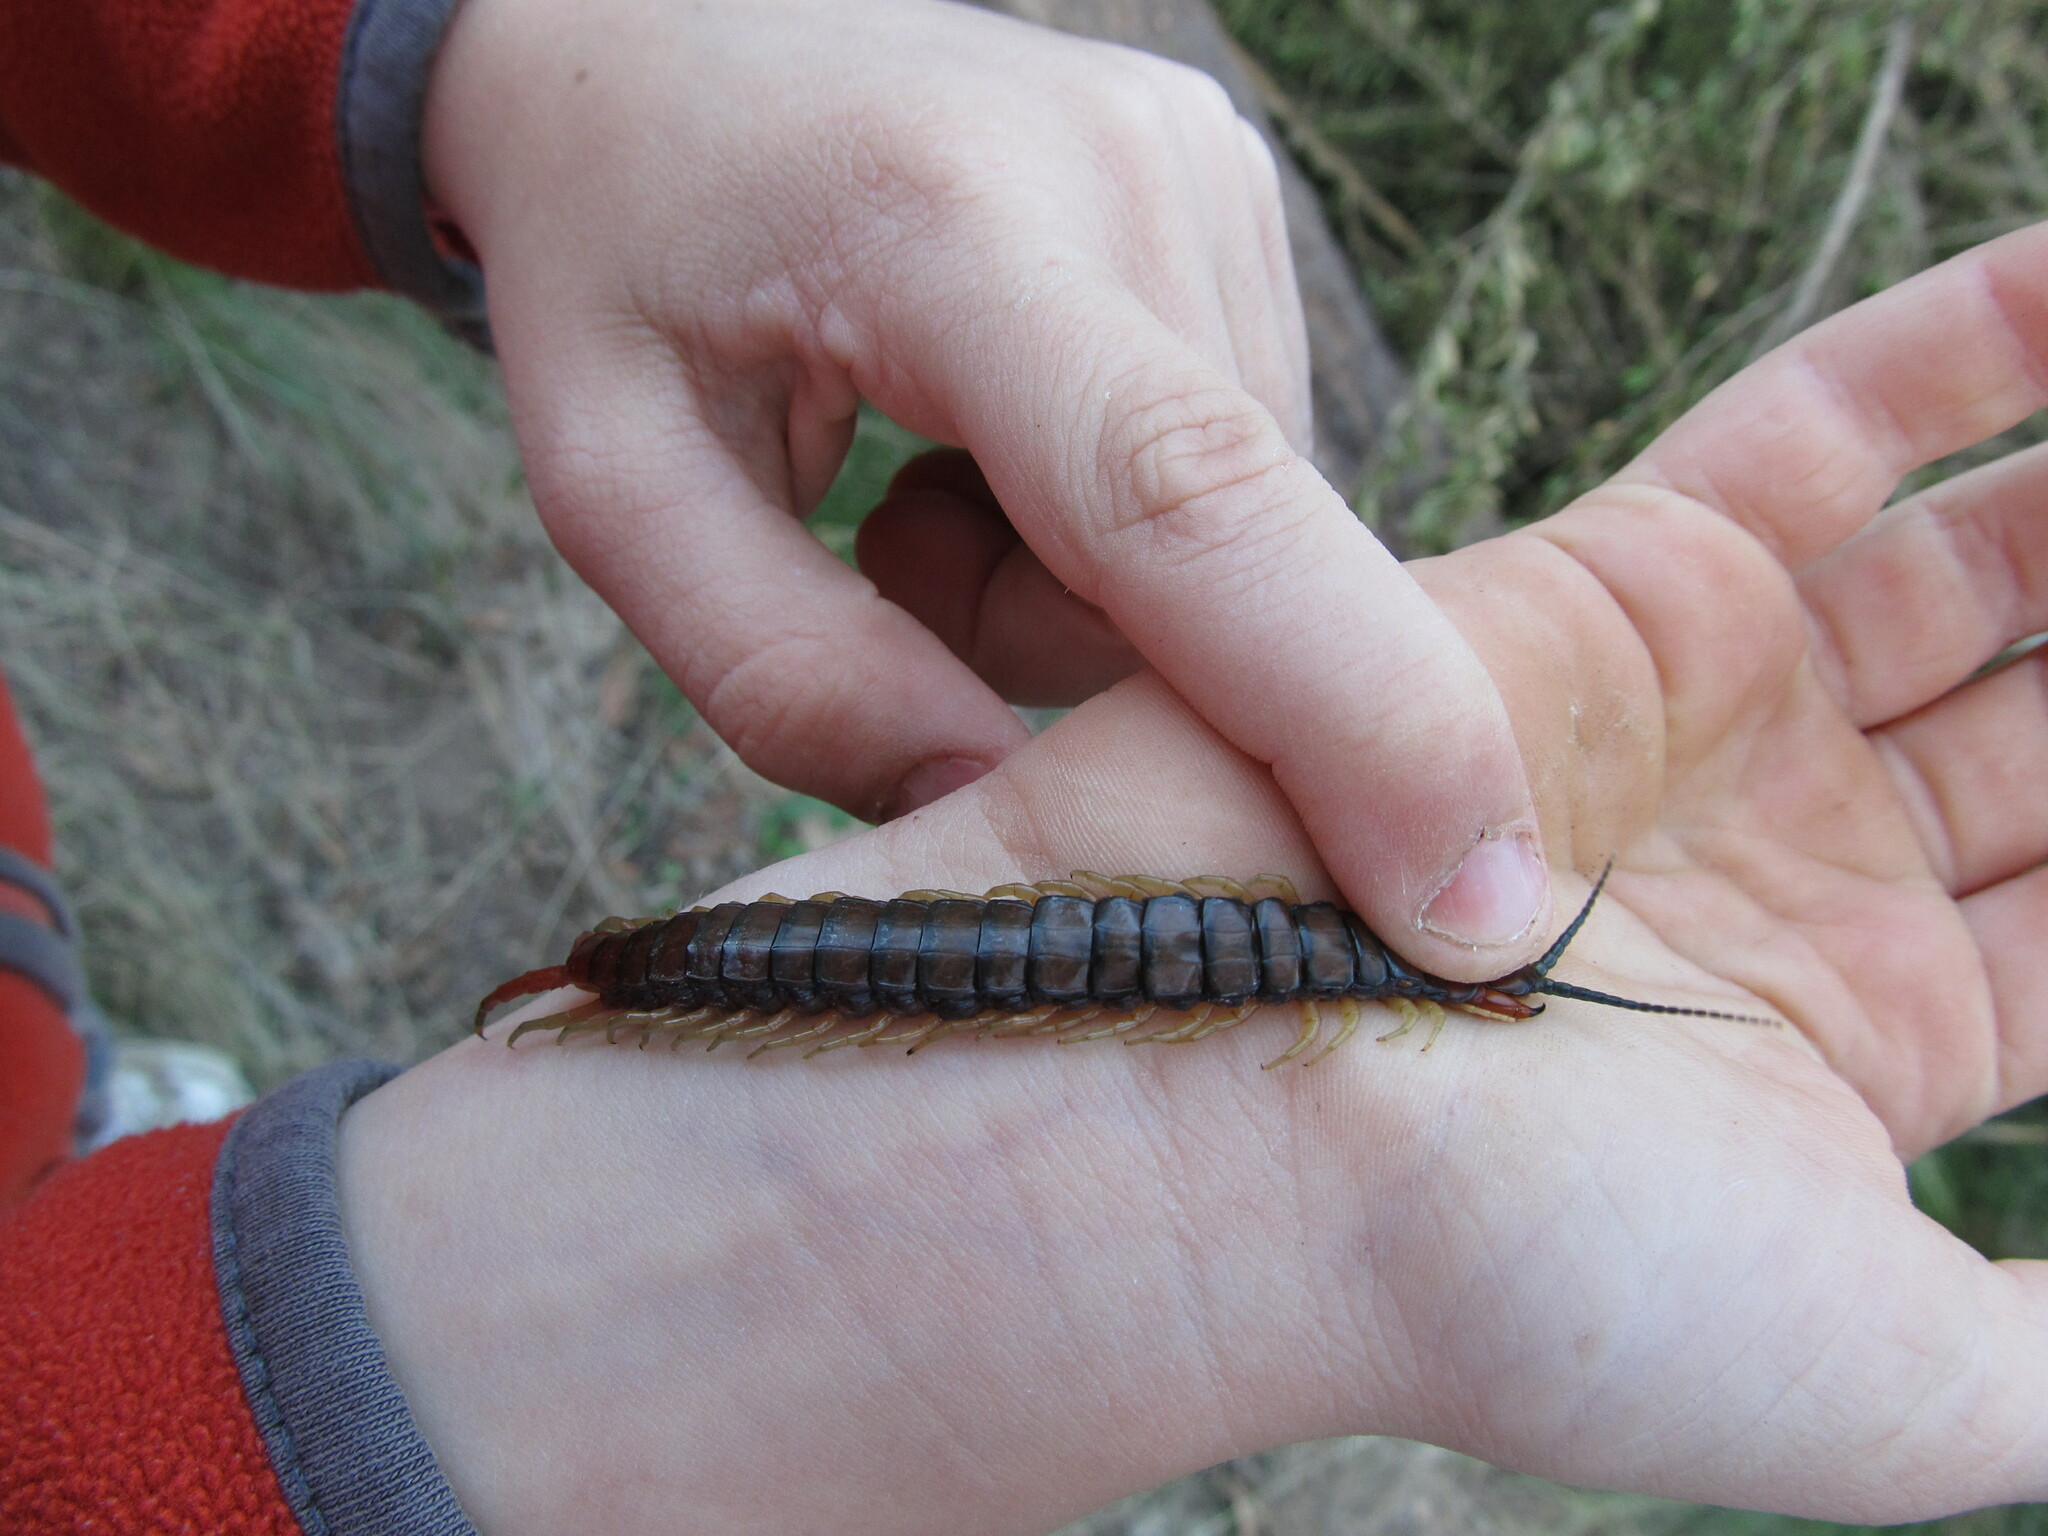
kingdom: Animalia
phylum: Arthropoda
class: Chilopoda
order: Scolopendromorpha
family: Scolopendridae
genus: Cormocephalus
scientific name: Cormocephalus aurantiipes
